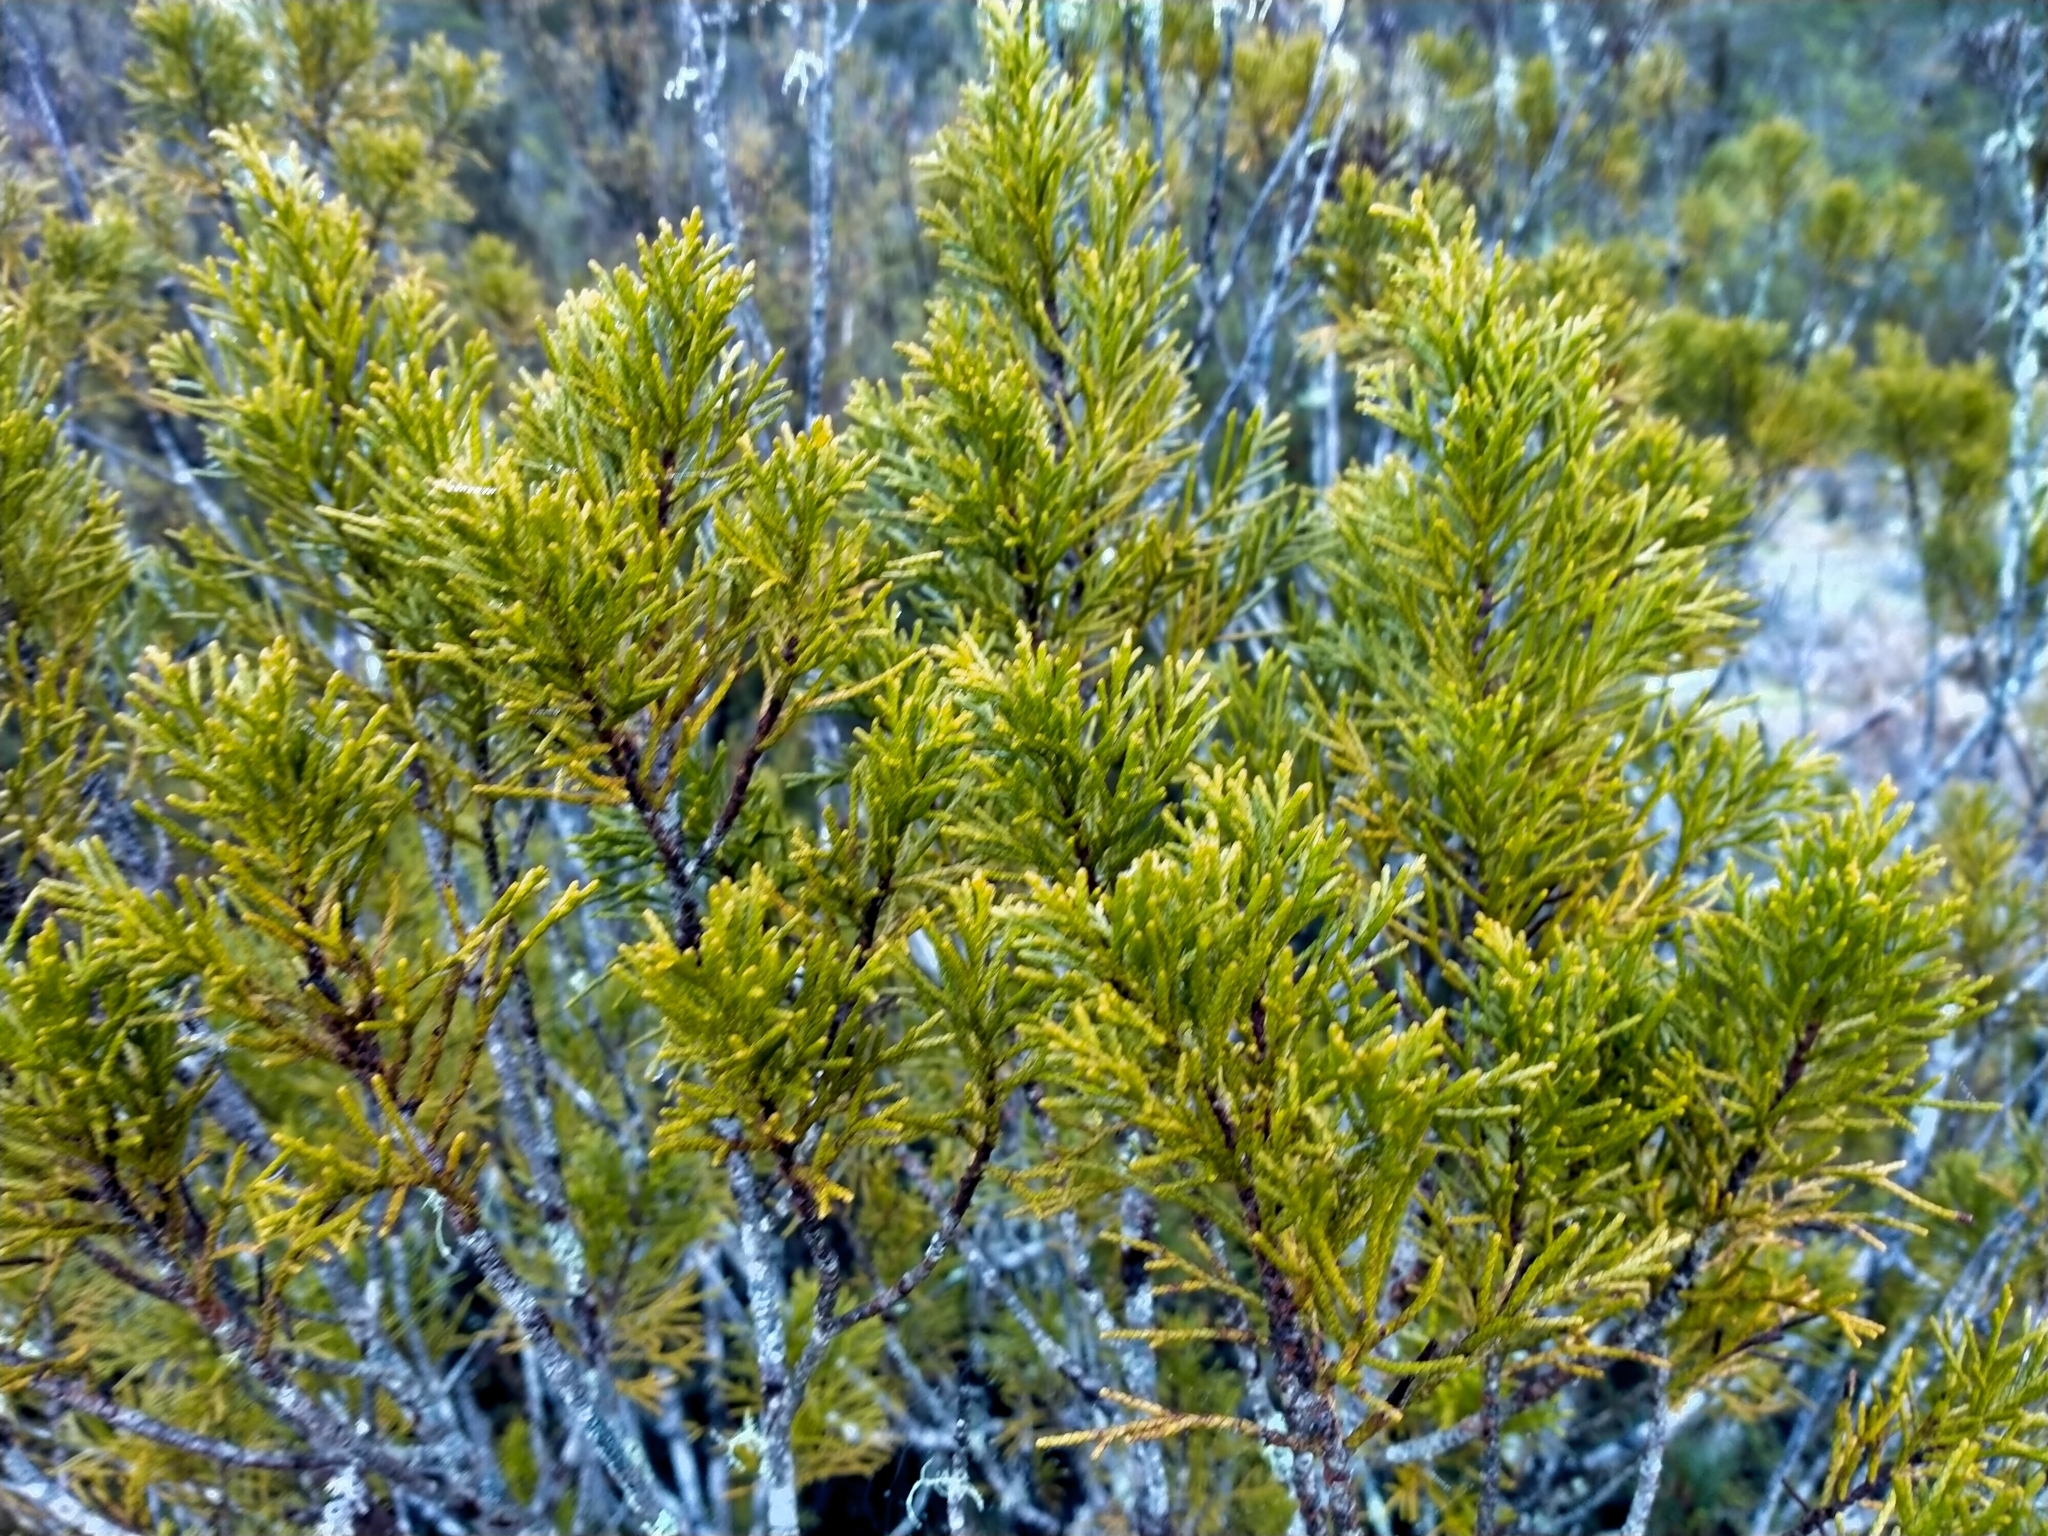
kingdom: Plantae
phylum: Tracheophyta
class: Pinopsida
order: Pinales
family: Podocarpaceae
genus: Halocarpus
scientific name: Halocarpus bidwillii
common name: Bog pine
